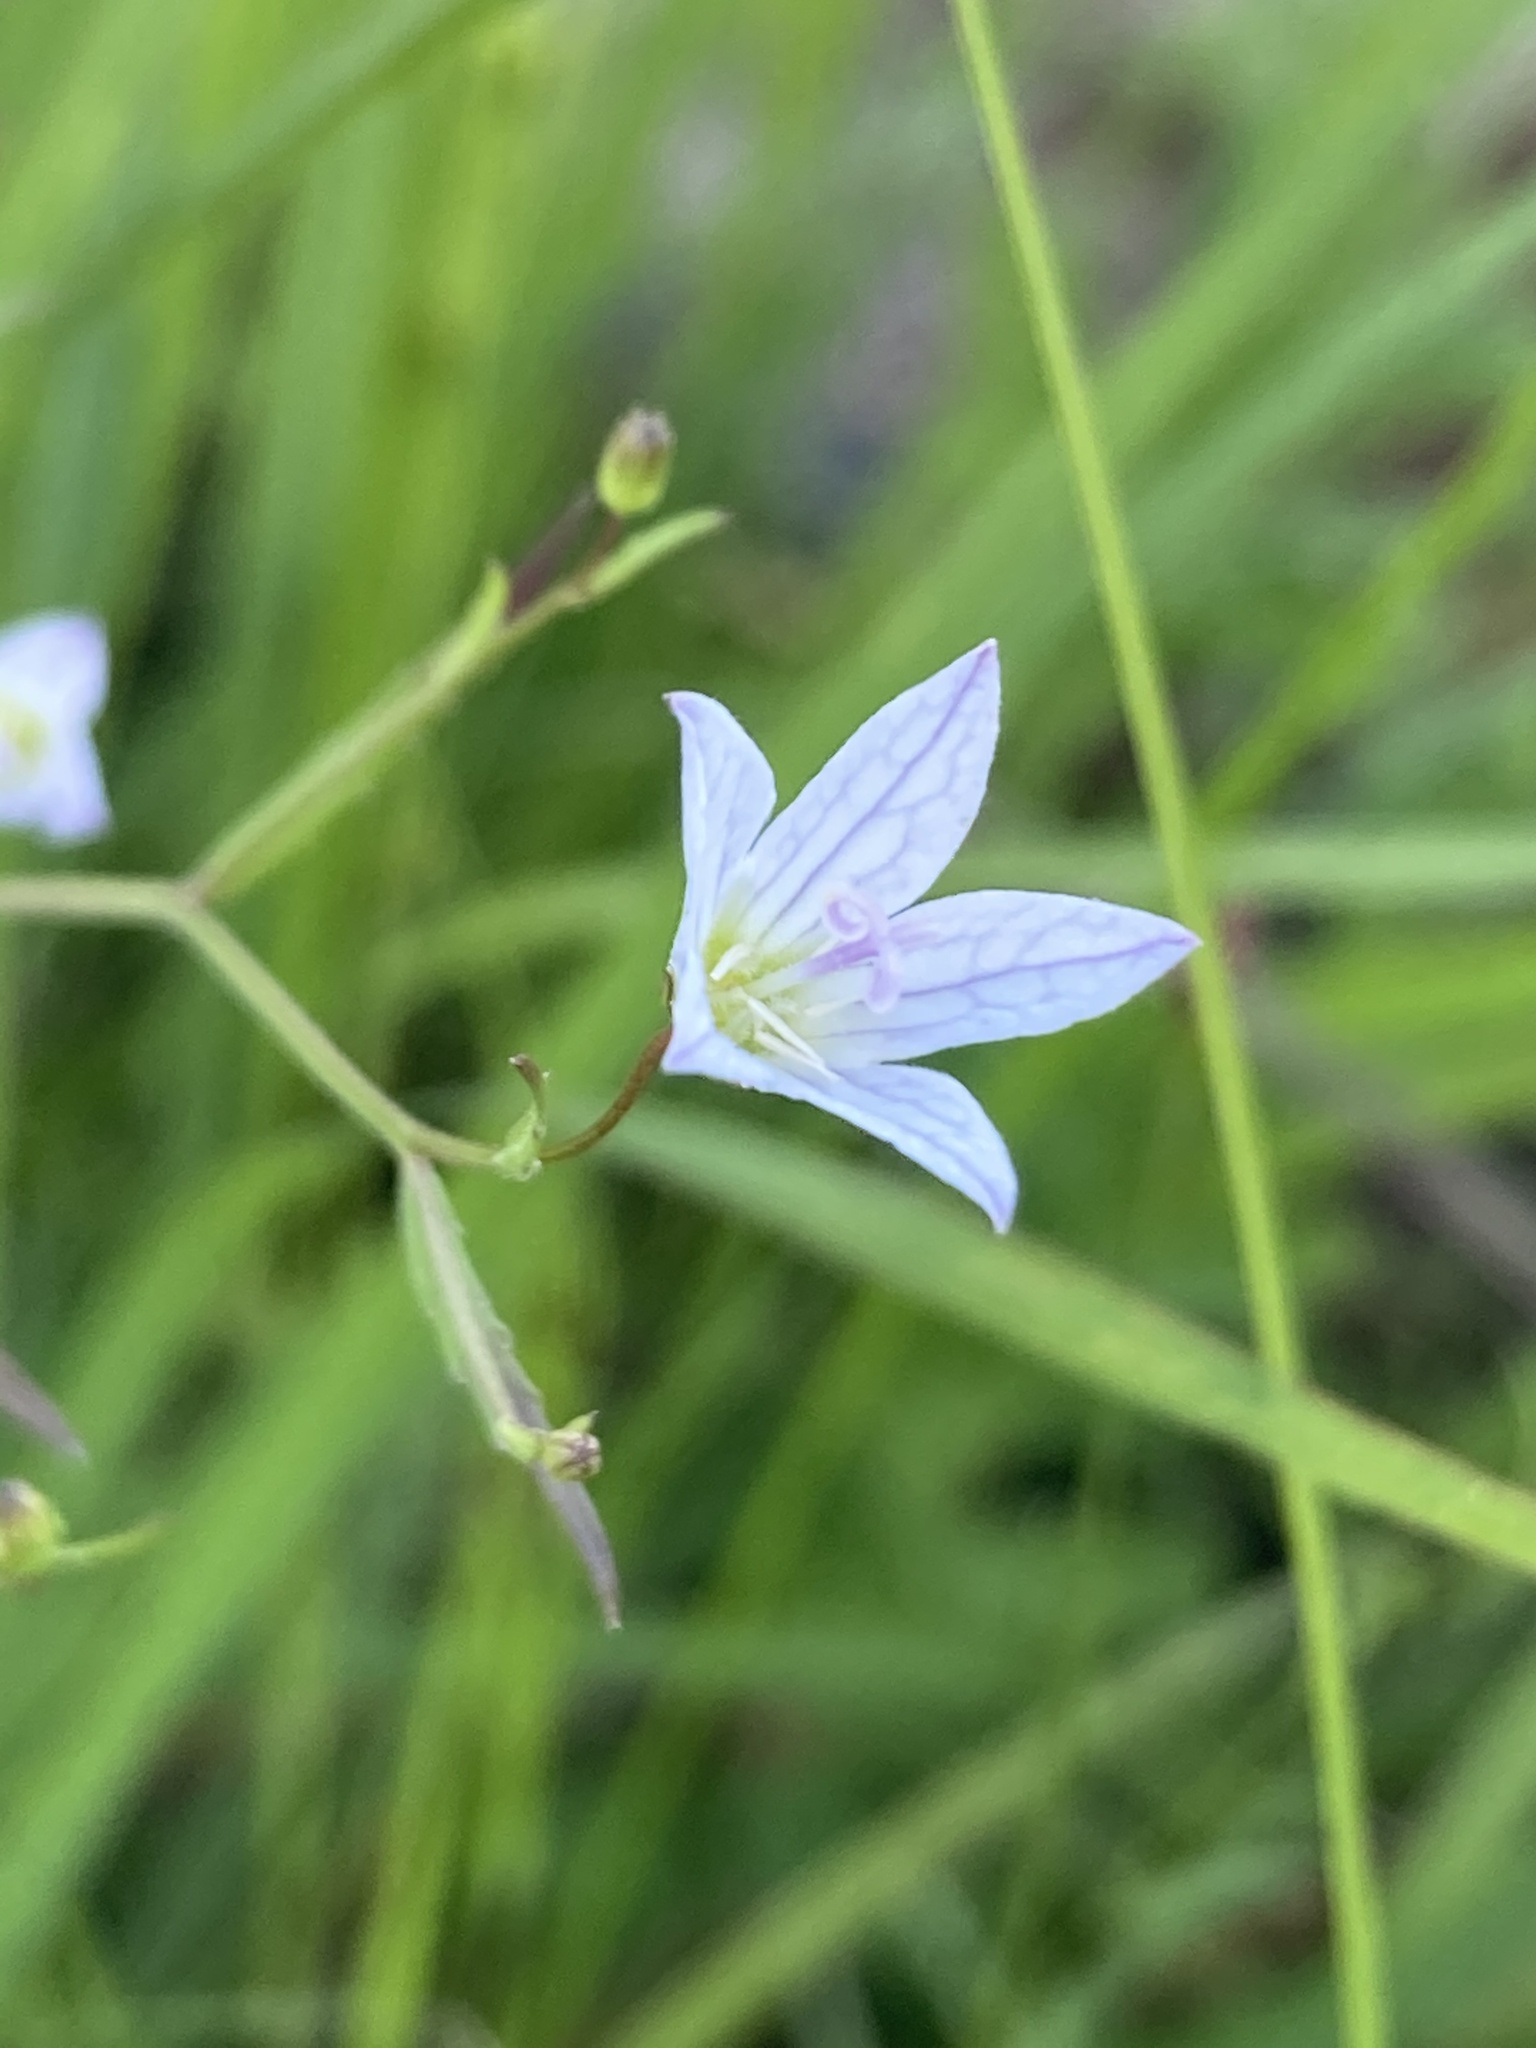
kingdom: Plantae
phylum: Tracheophyta
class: Magnoliopsida
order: Asterales
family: Campanulaceae
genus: Palustricodon
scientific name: Palustricodon aparinoides
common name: Bedstraw bellflower
